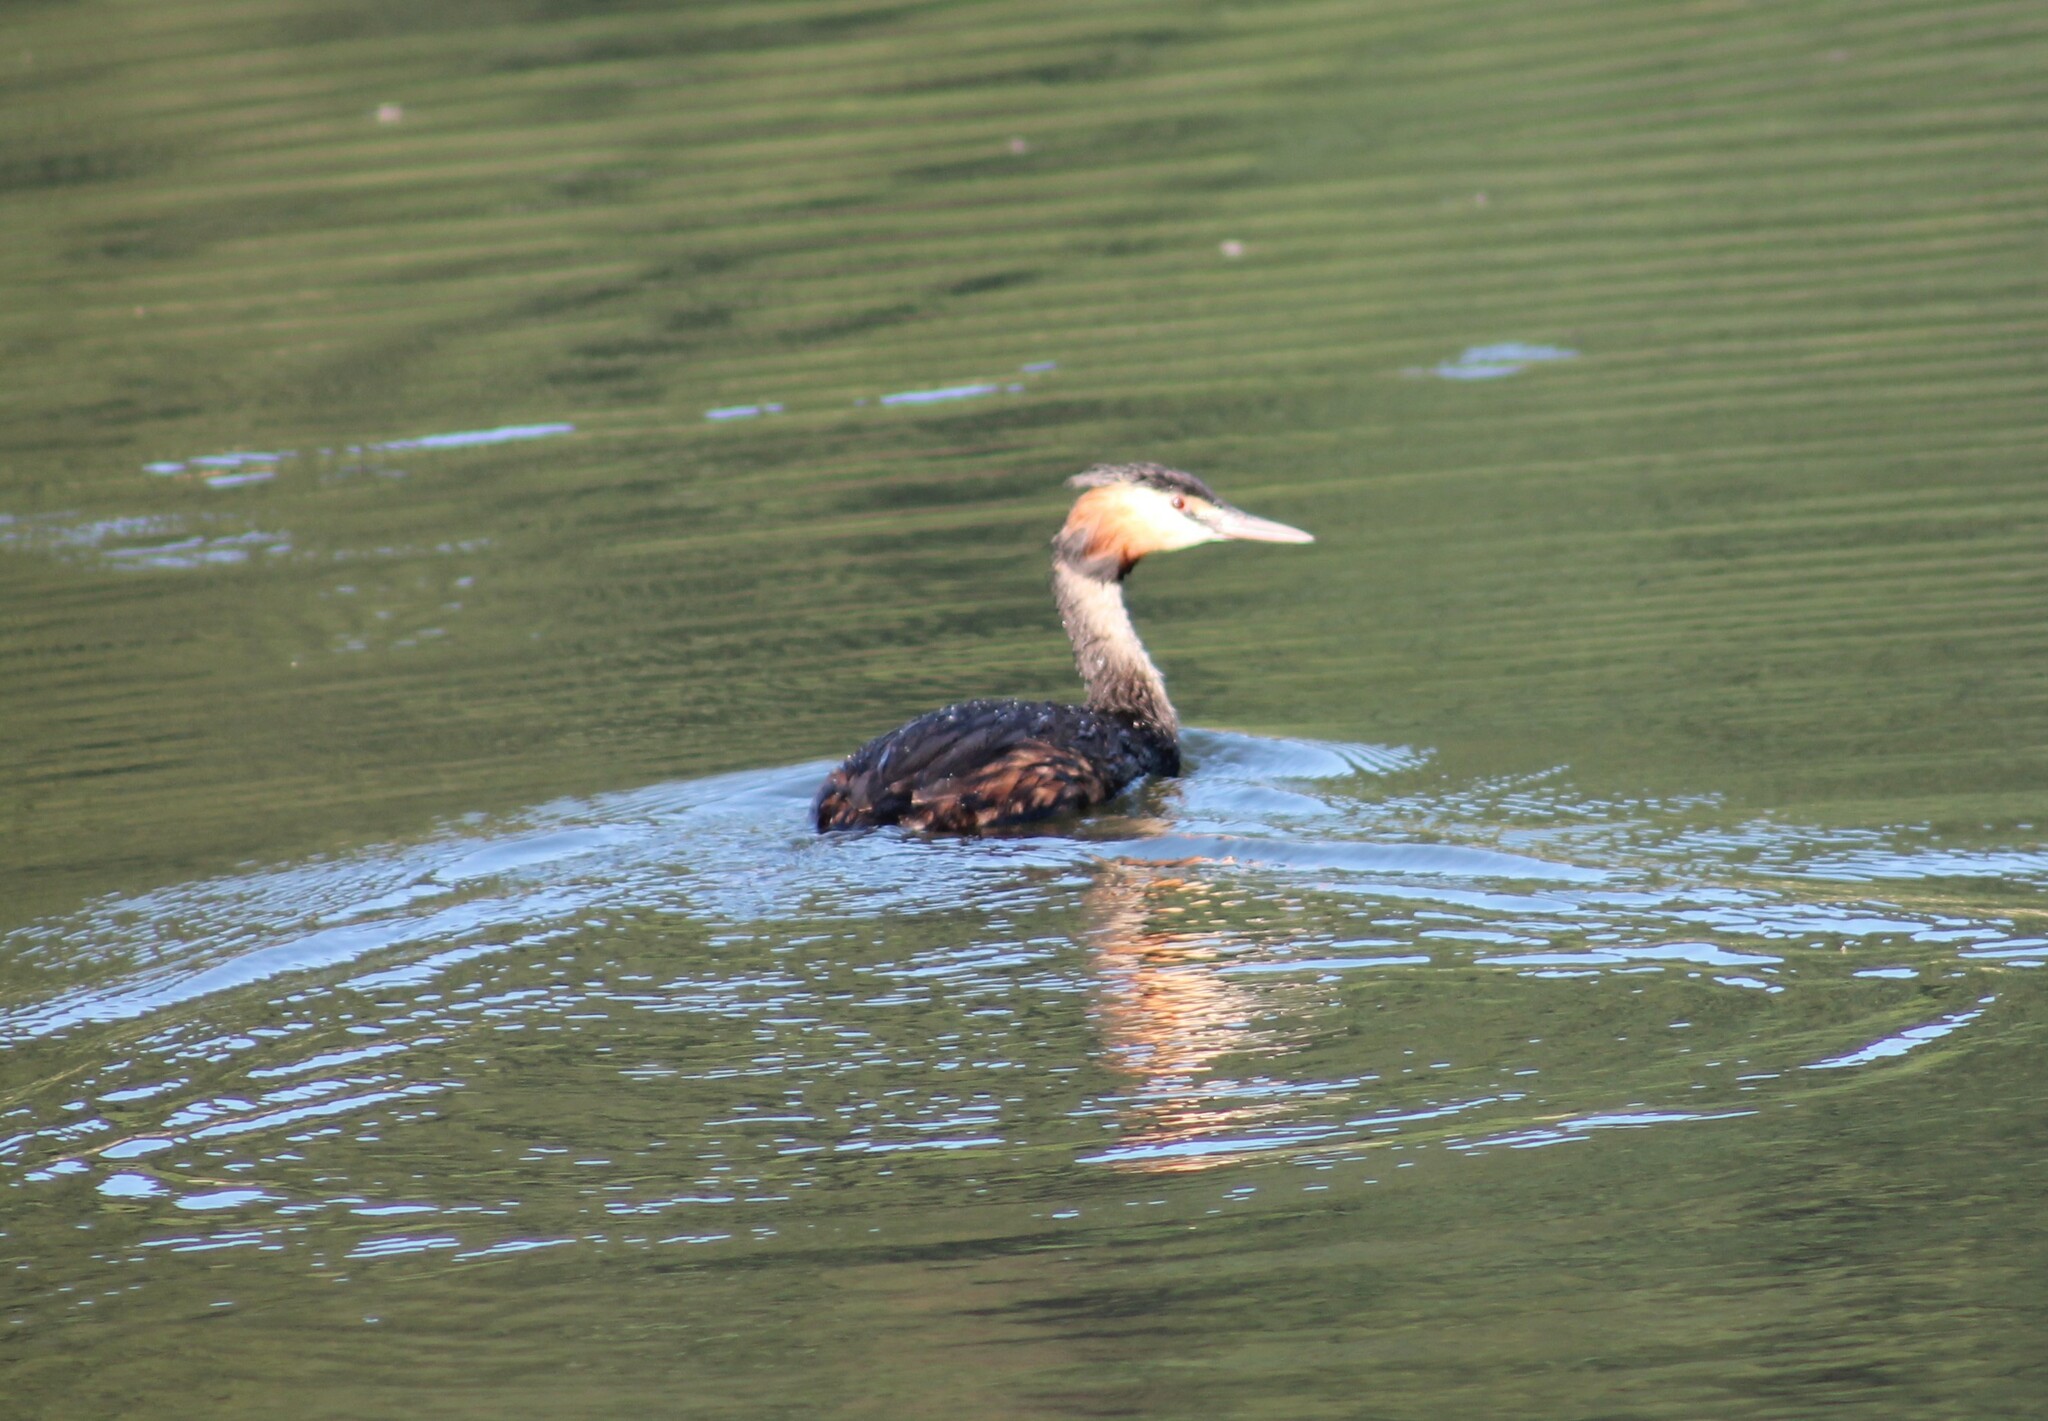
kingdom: Animalia
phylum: Chordata
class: Aves
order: Podicipediformes
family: Podicipedidae
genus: Podiceps
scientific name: Podiceps cristatus
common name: Great crested grebe
